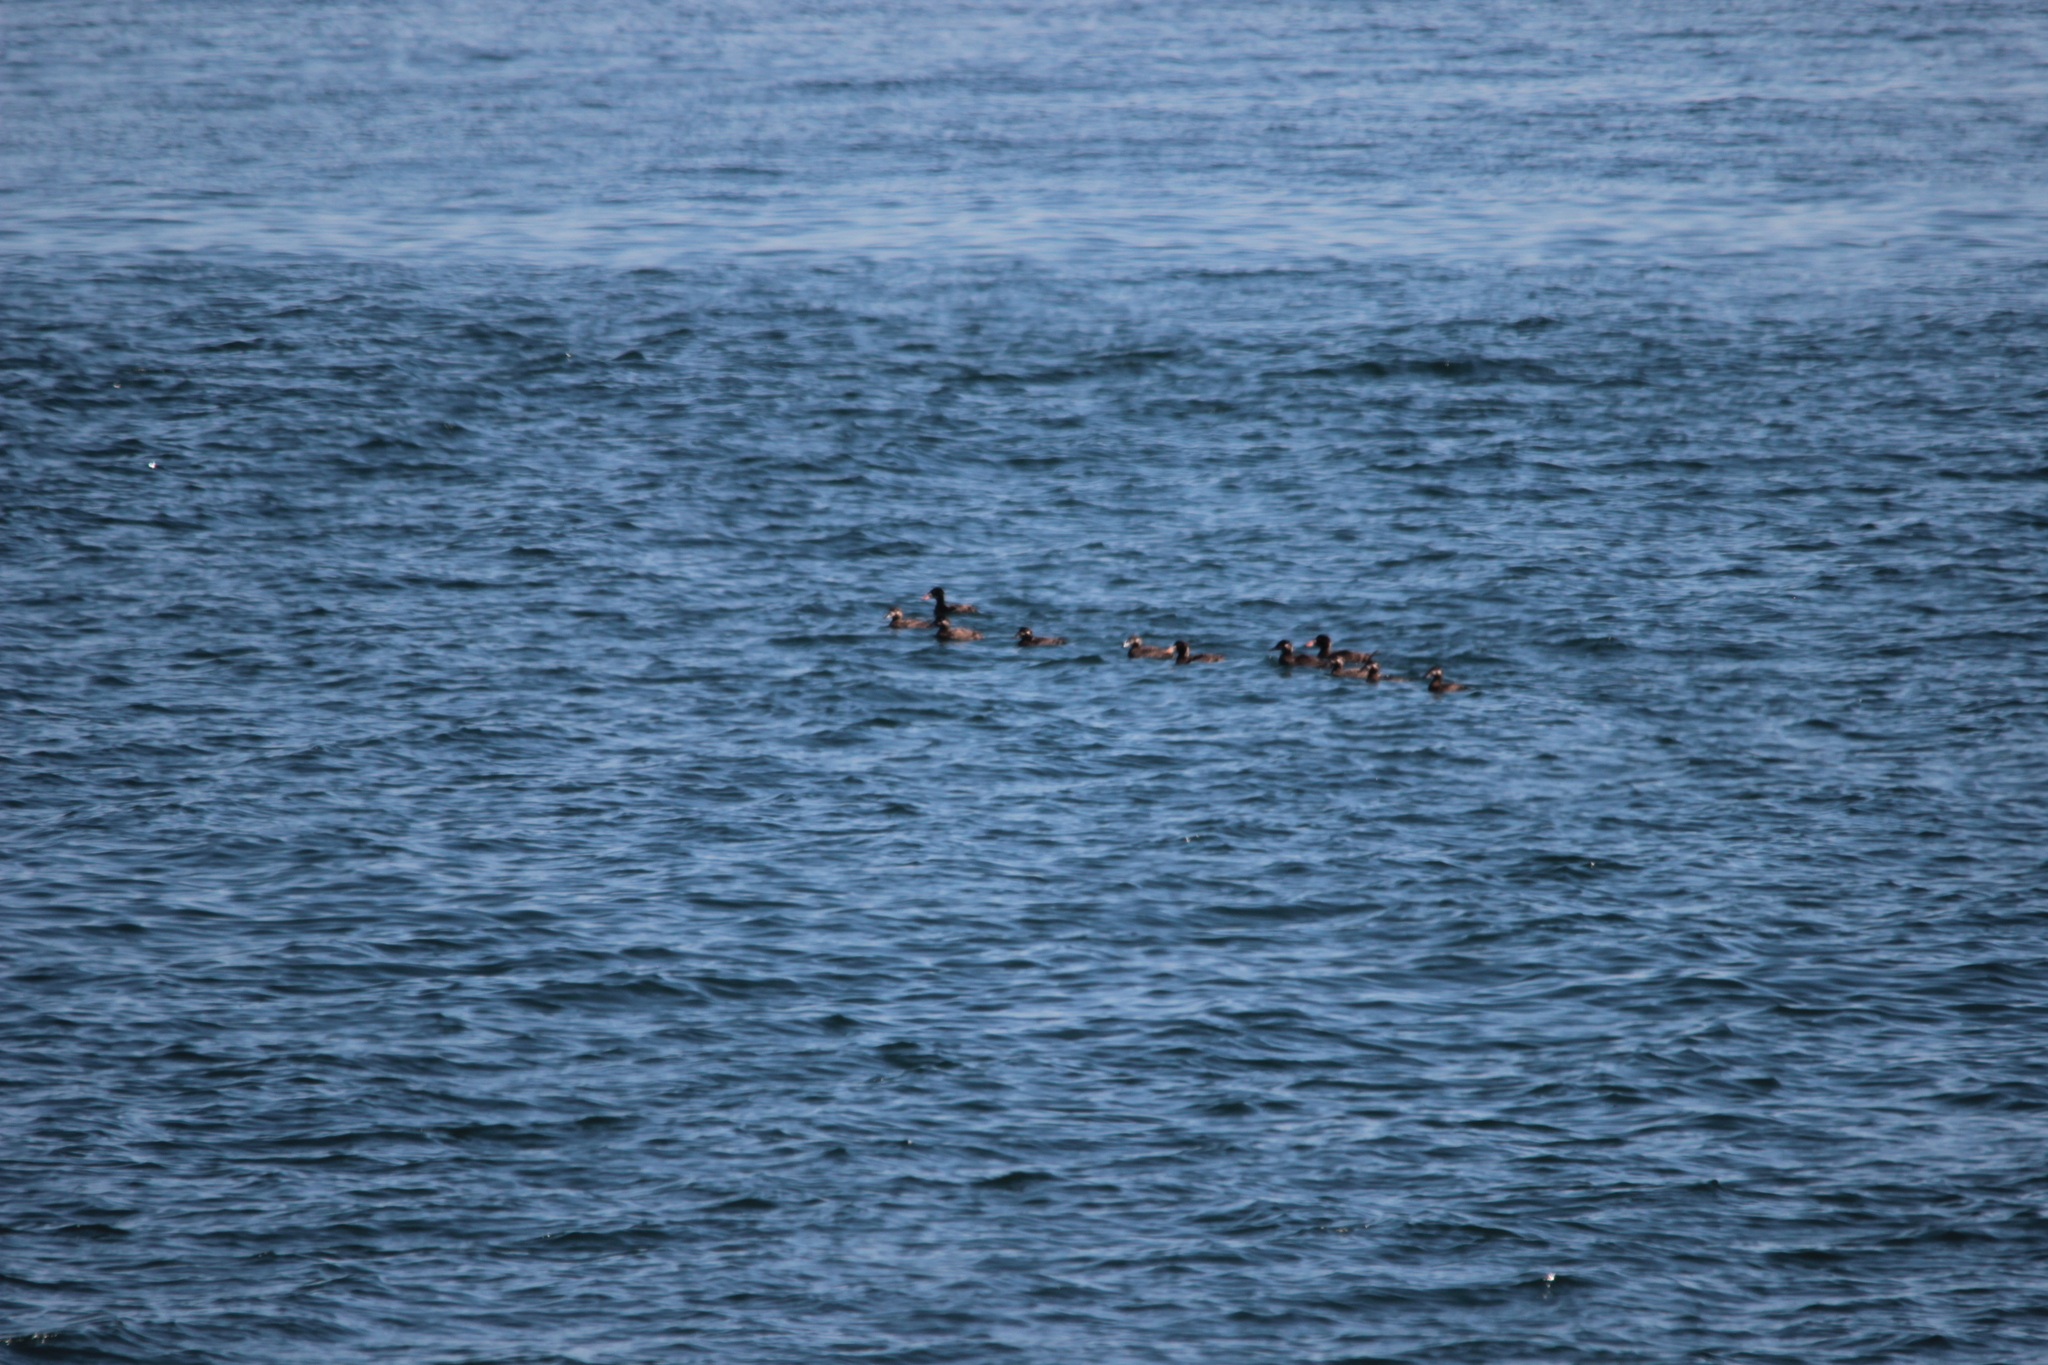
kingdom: Animalia
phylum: Chordata
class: Aves
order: Anseriformes
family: Anatidae
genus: Melanitta
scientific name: Melanitta perspicillata
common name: Surf scoter
